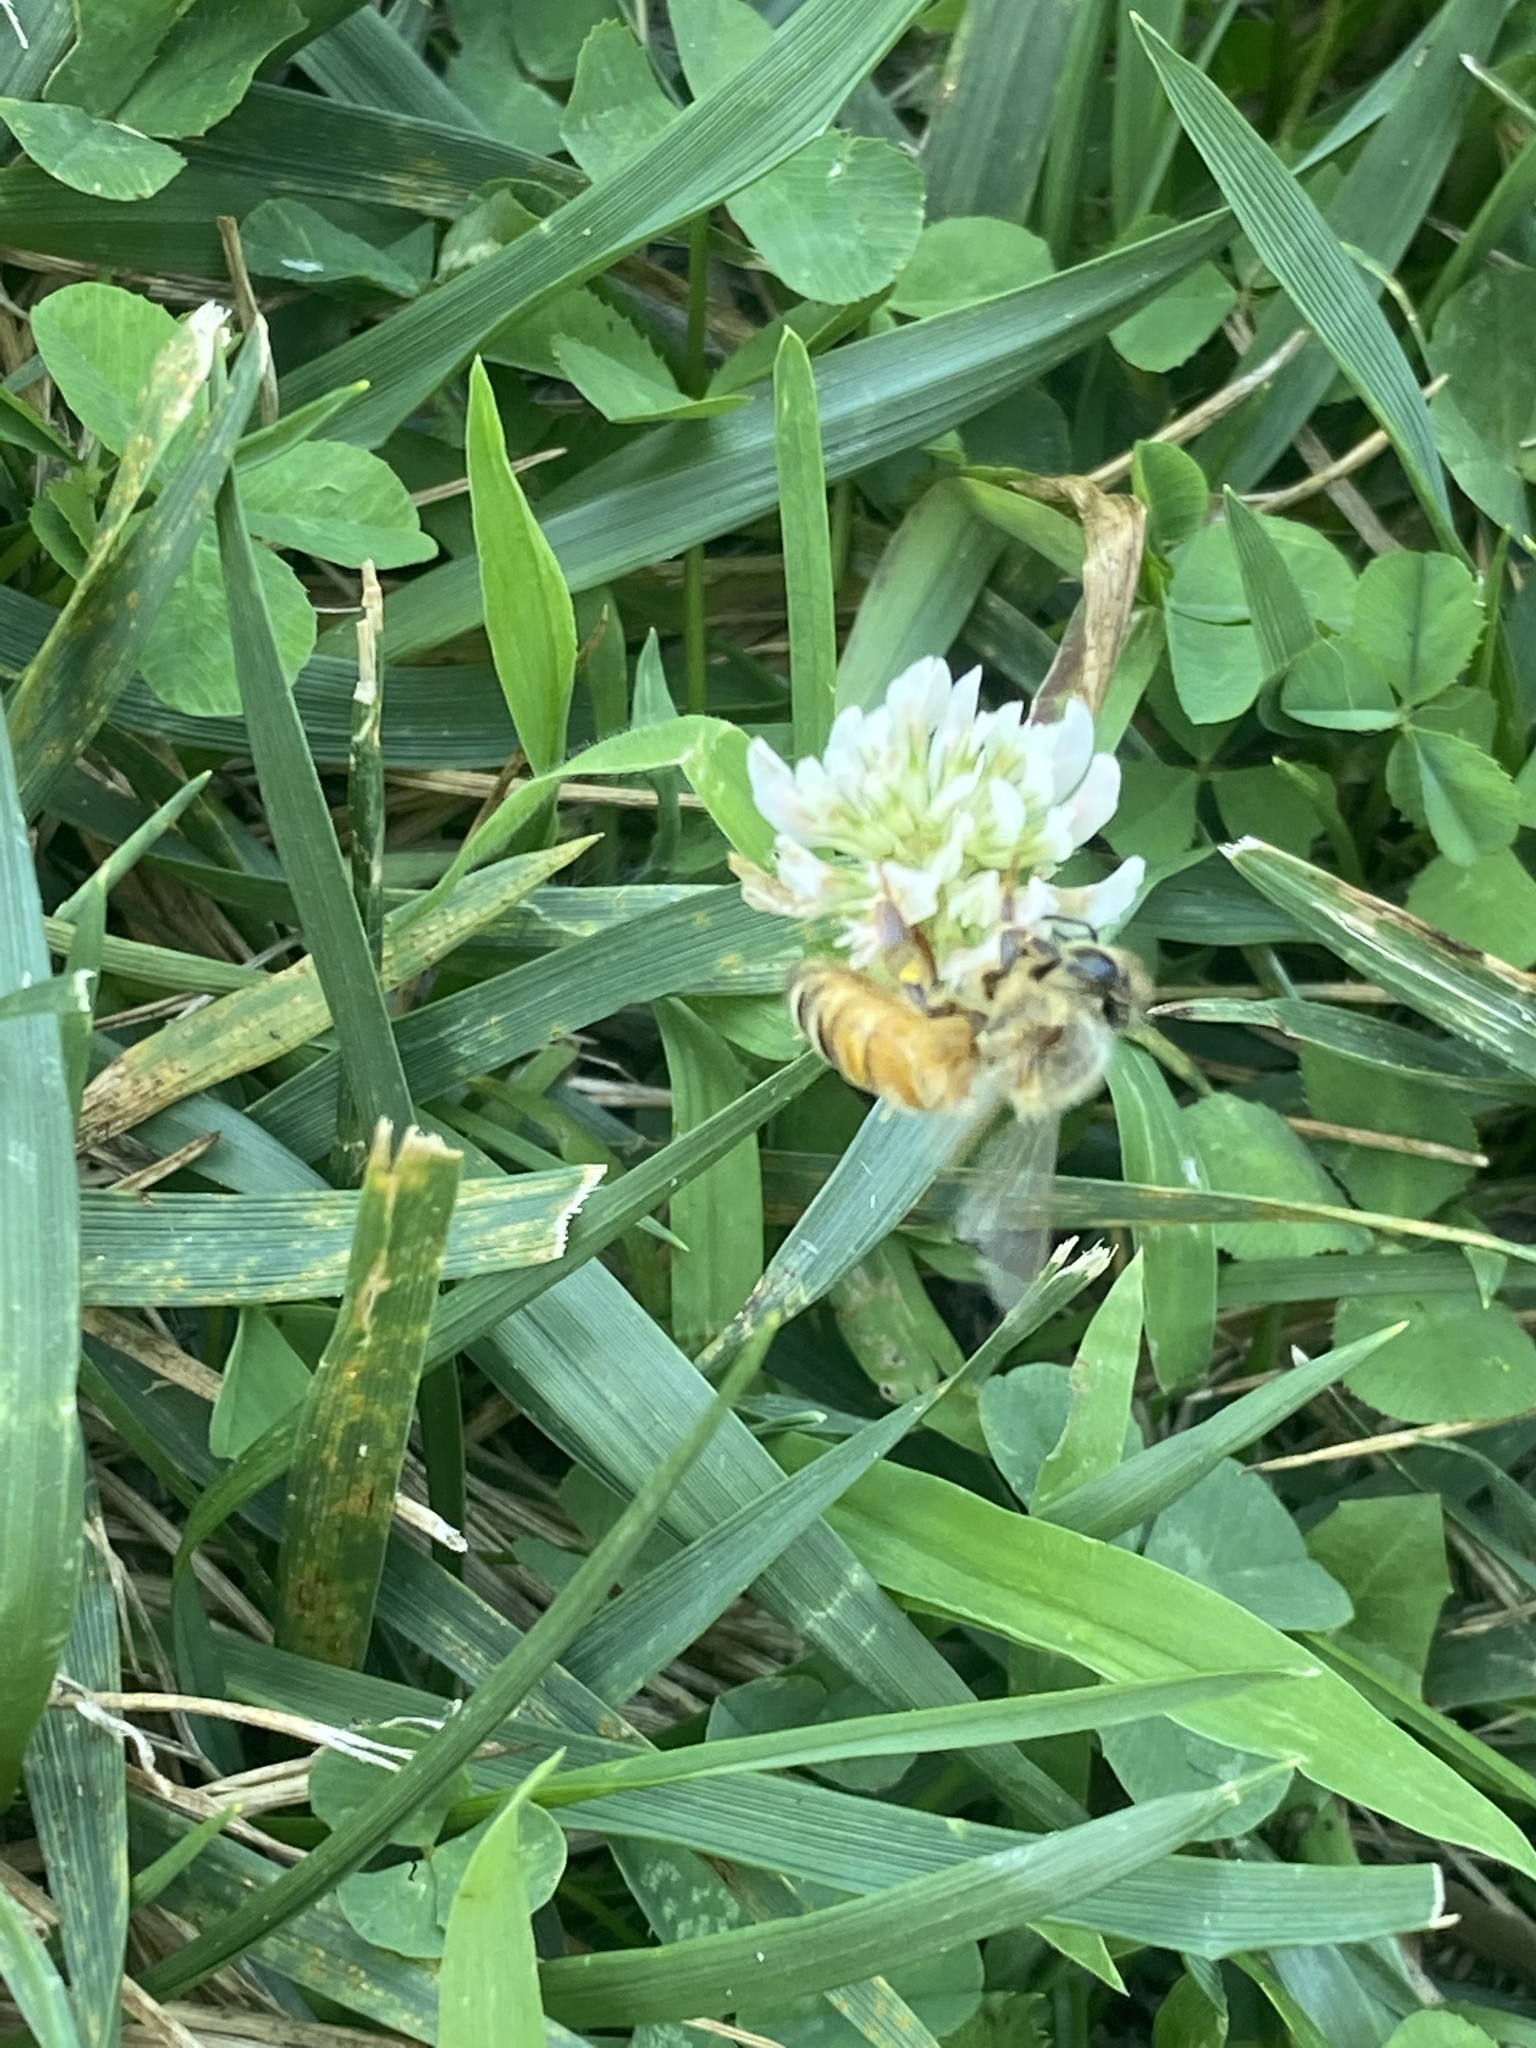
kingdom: Animalia
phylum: Arthropoda
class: Insecta
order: Hymenoptera
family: Apidae
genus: Apis
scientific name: Apis mellifera
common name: Honey bee
